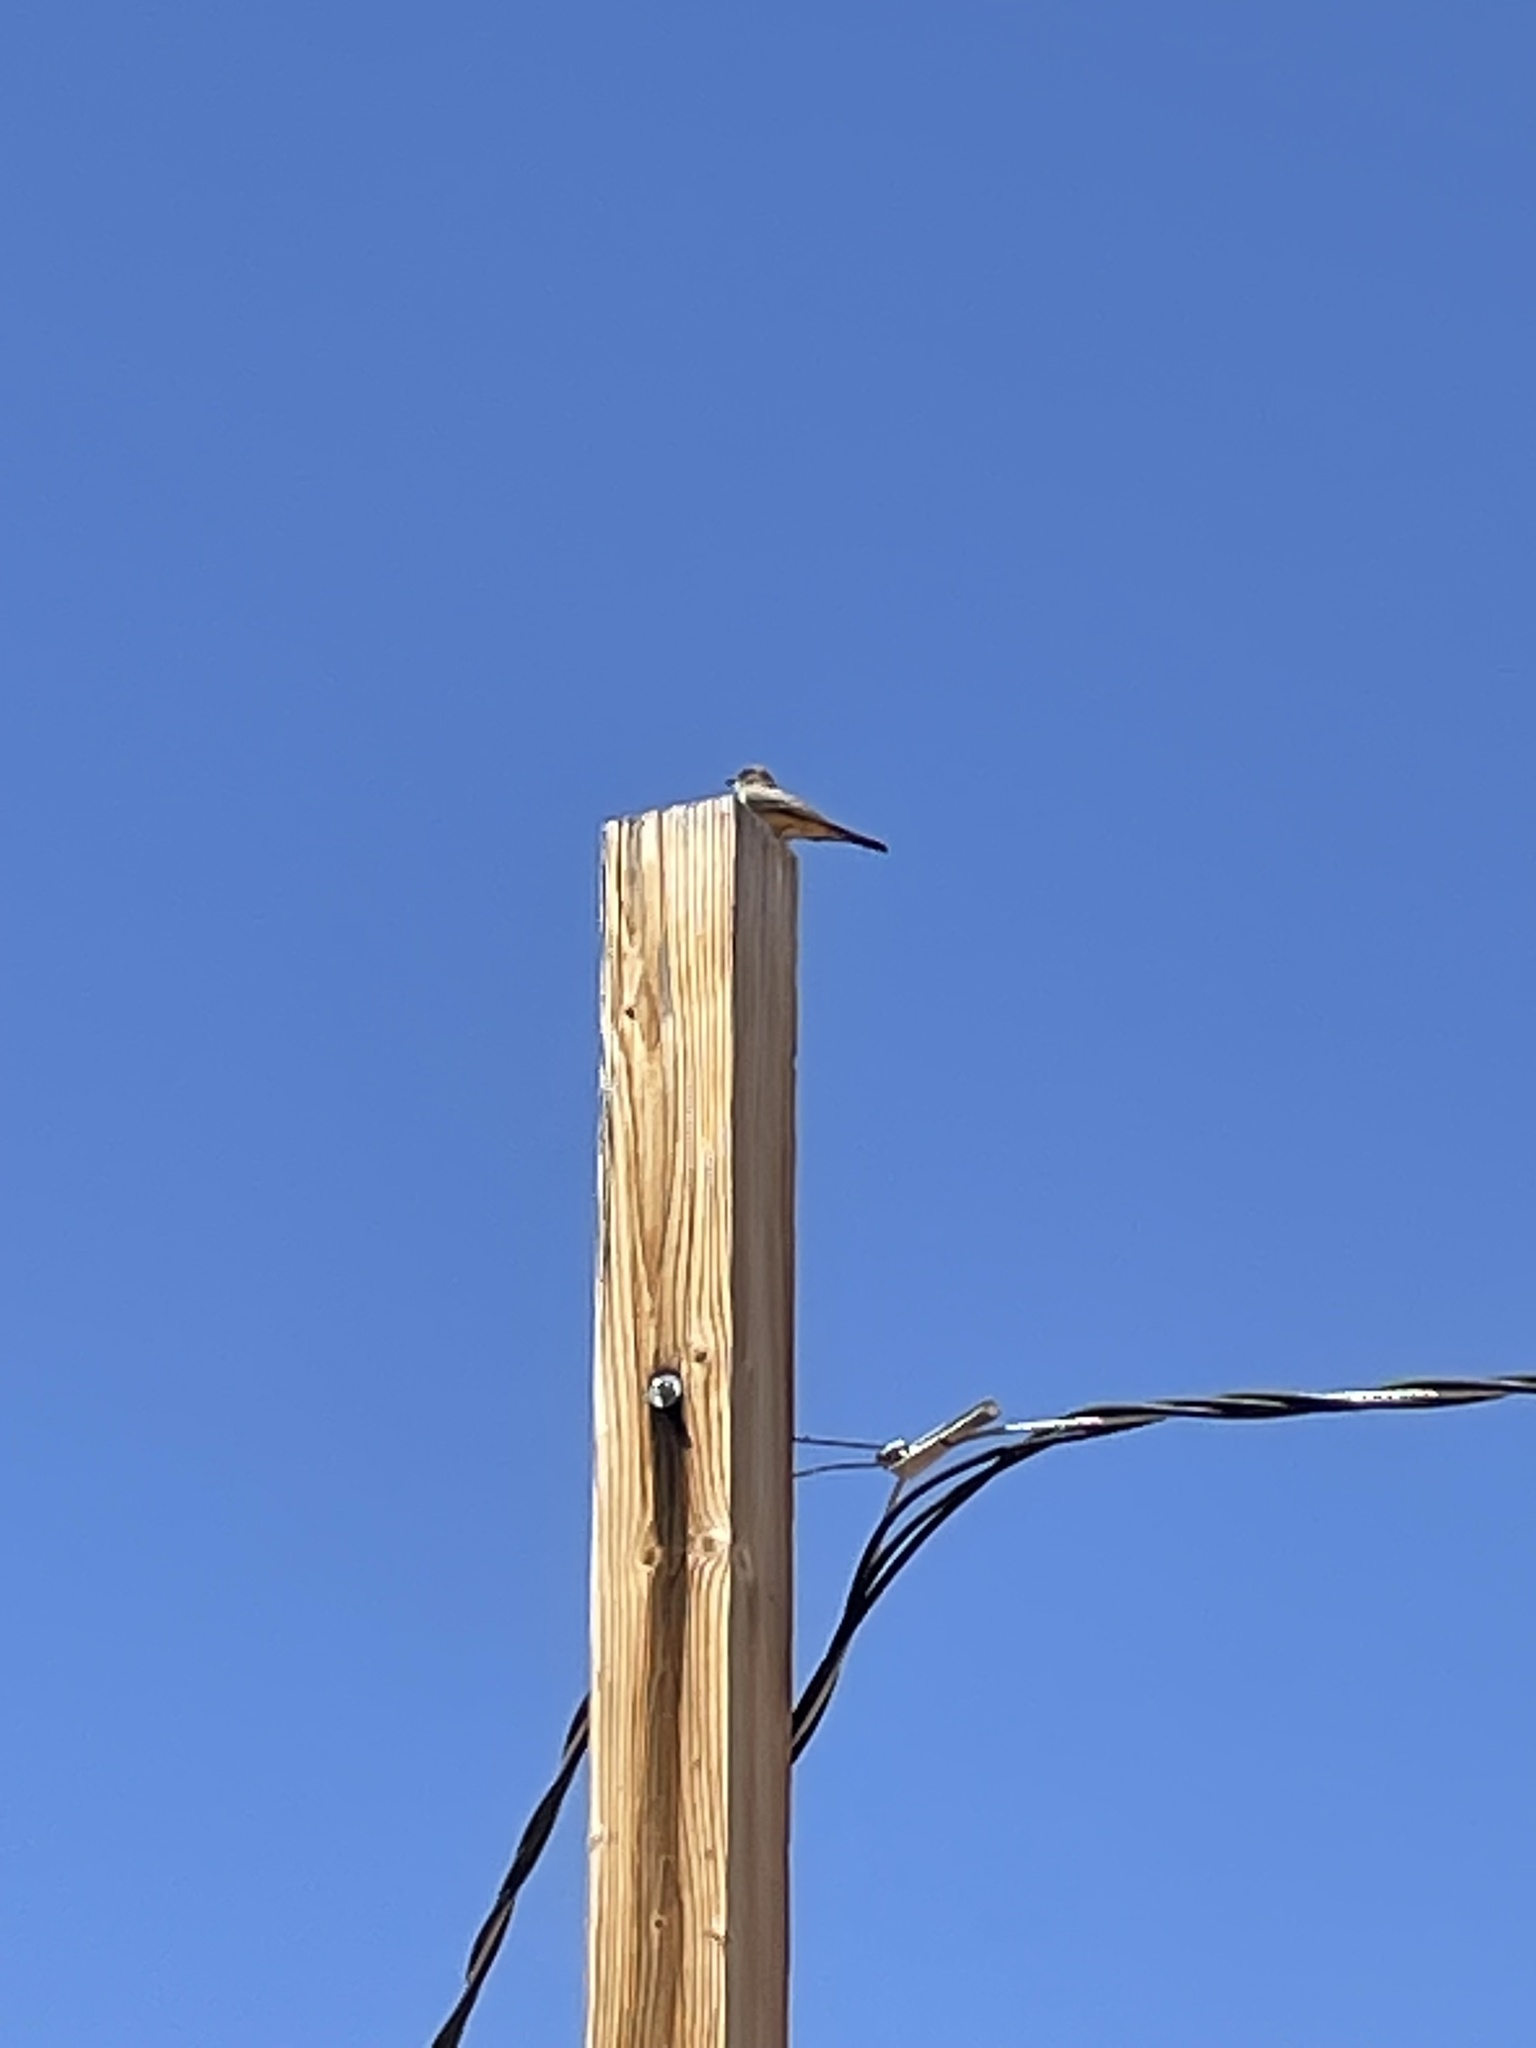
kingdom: Animalia
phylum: Chordata
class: Aves
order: Passeriformes
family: Tyrannidae
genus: Tyrannus
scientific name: Tyrannus verticalis
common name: Western kingbird
